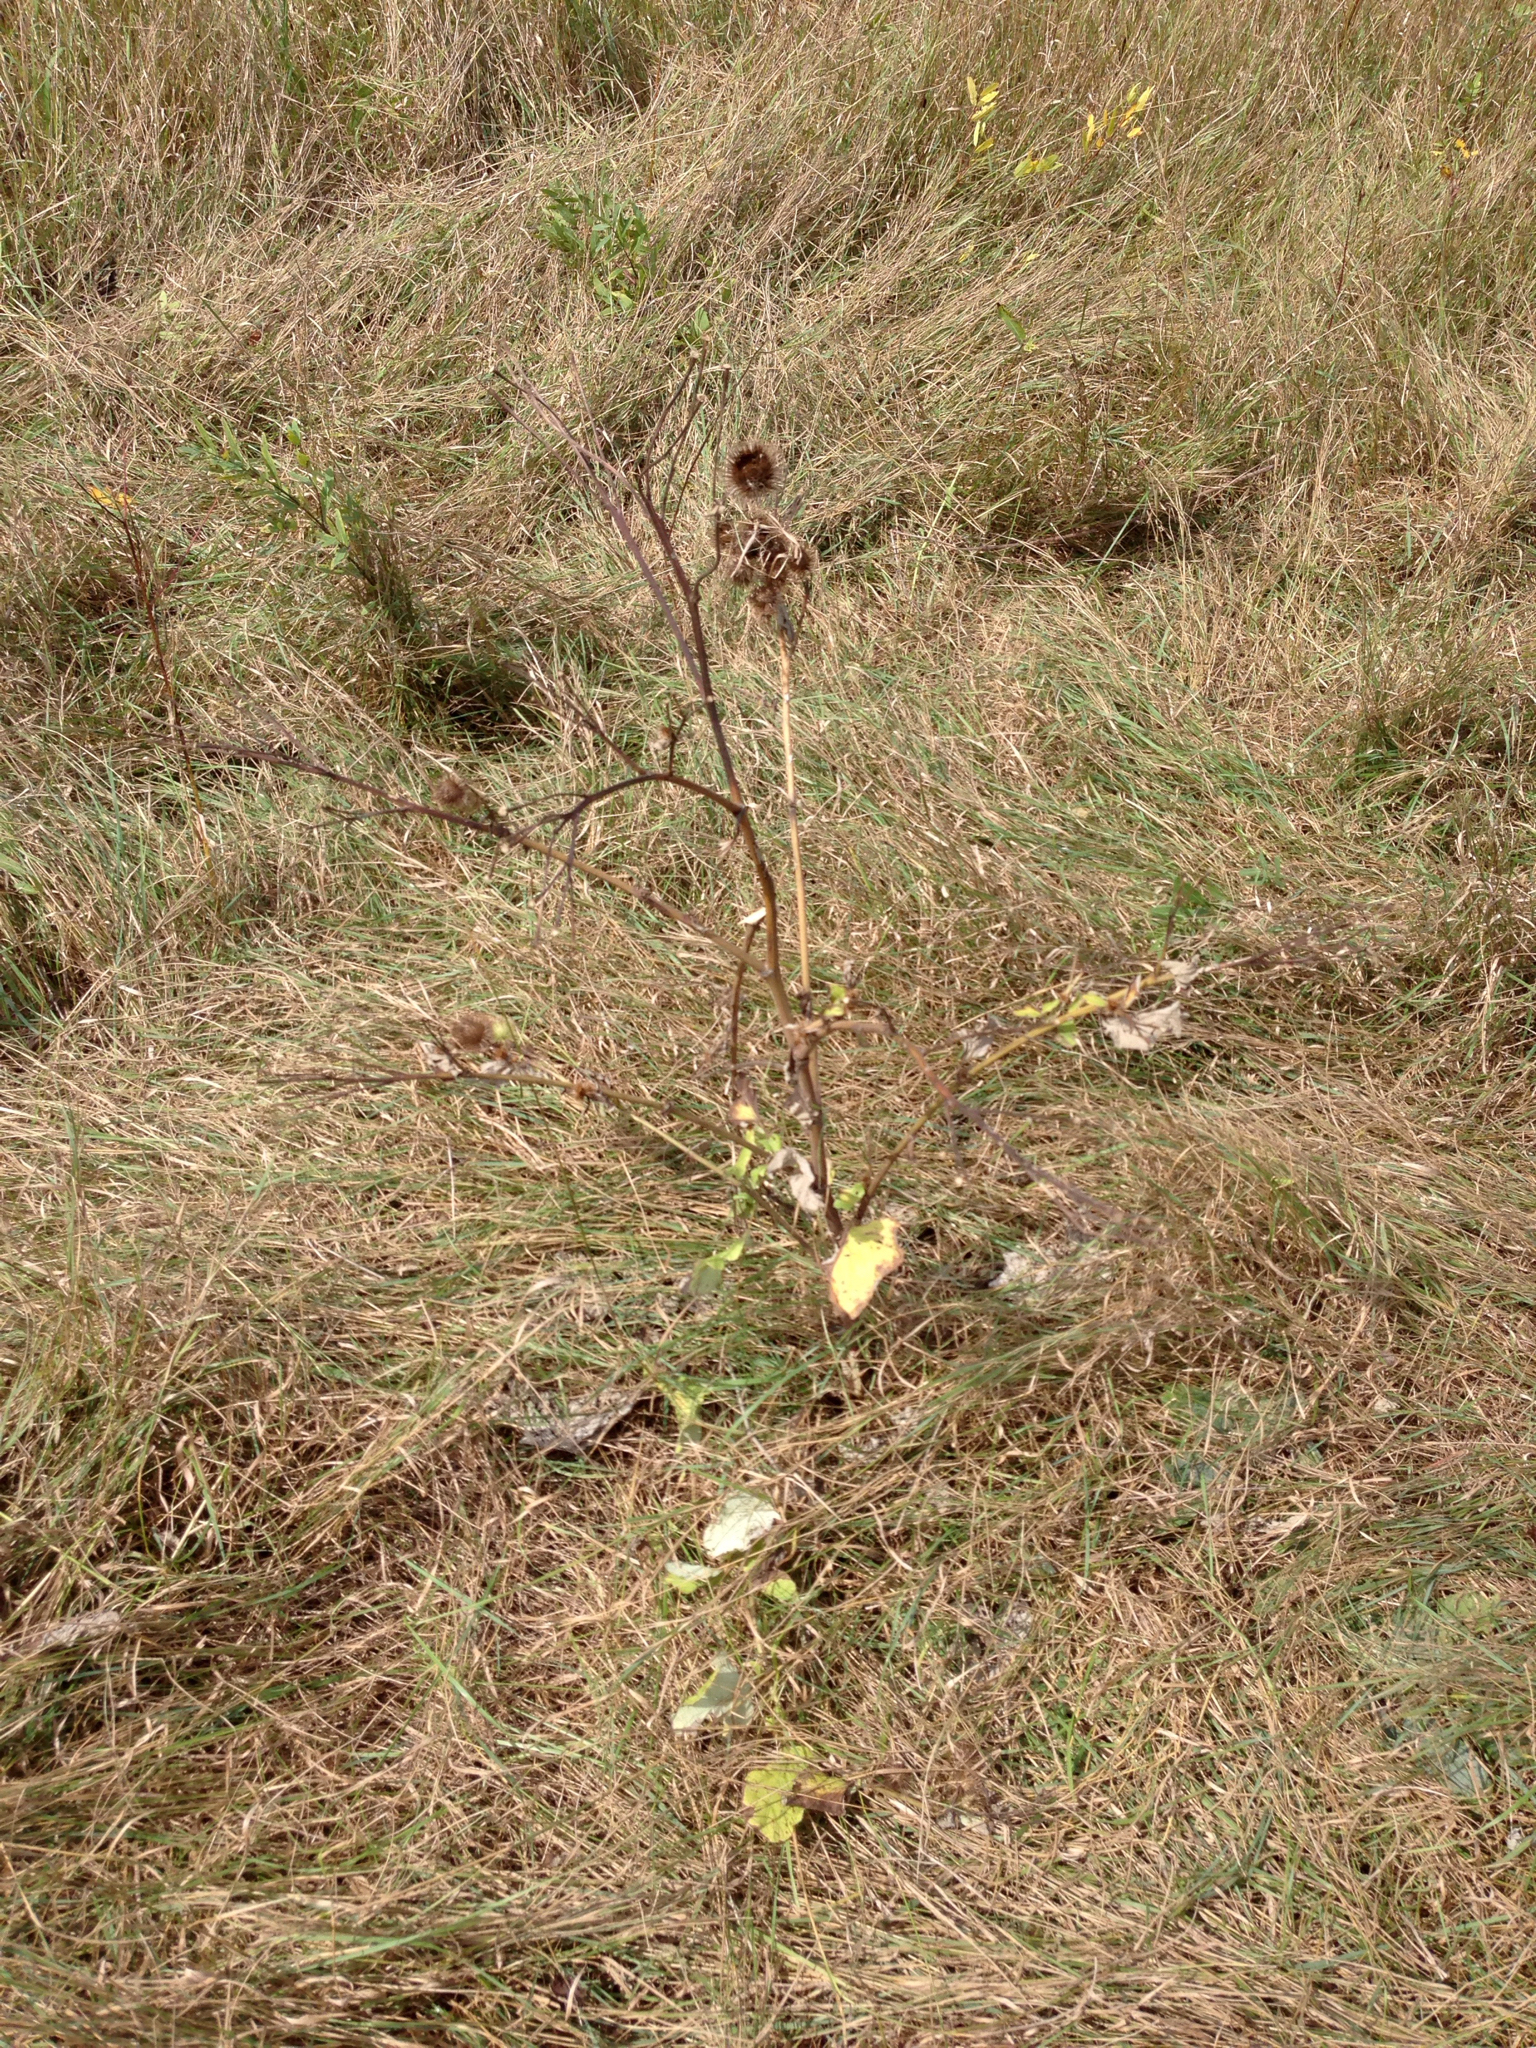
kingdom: Plantae
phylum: Tracheophyta
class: Magnoliopsida
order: Asterales
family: Asteraceae
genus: Arctium
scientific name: Arctium lappa
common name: Greater burdock
